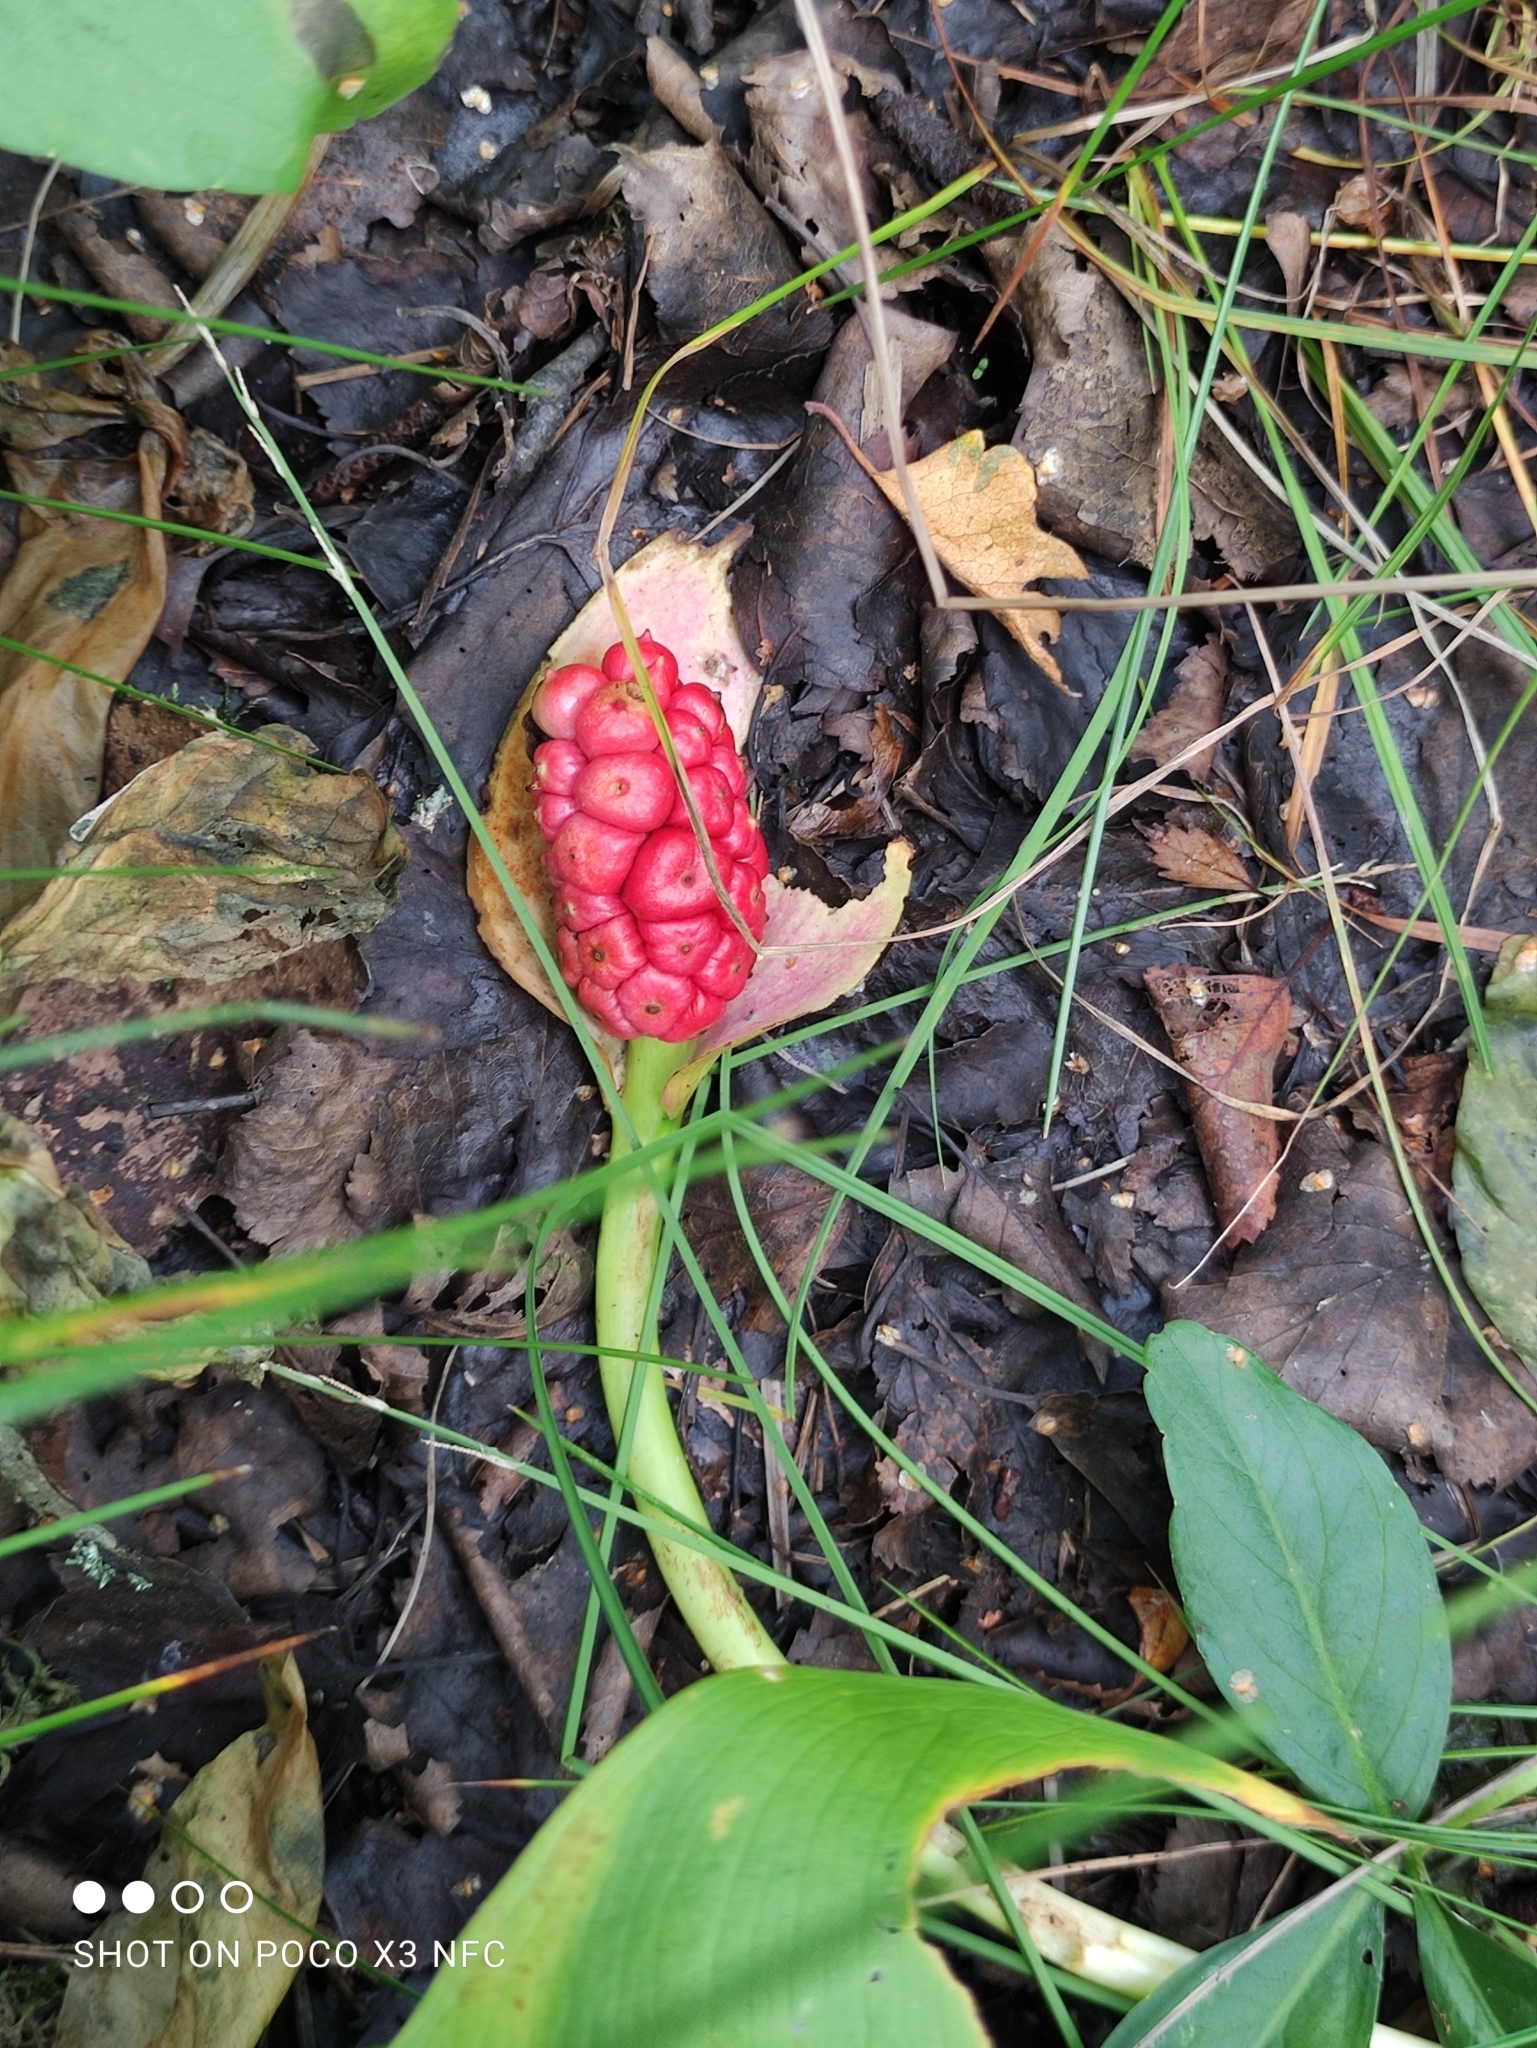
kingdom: Plantae
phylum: Tracheophyta
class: Liliopsida
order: Alismatales
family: Araceae
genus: Calla
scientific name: Calla palustris
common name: Bog arum
